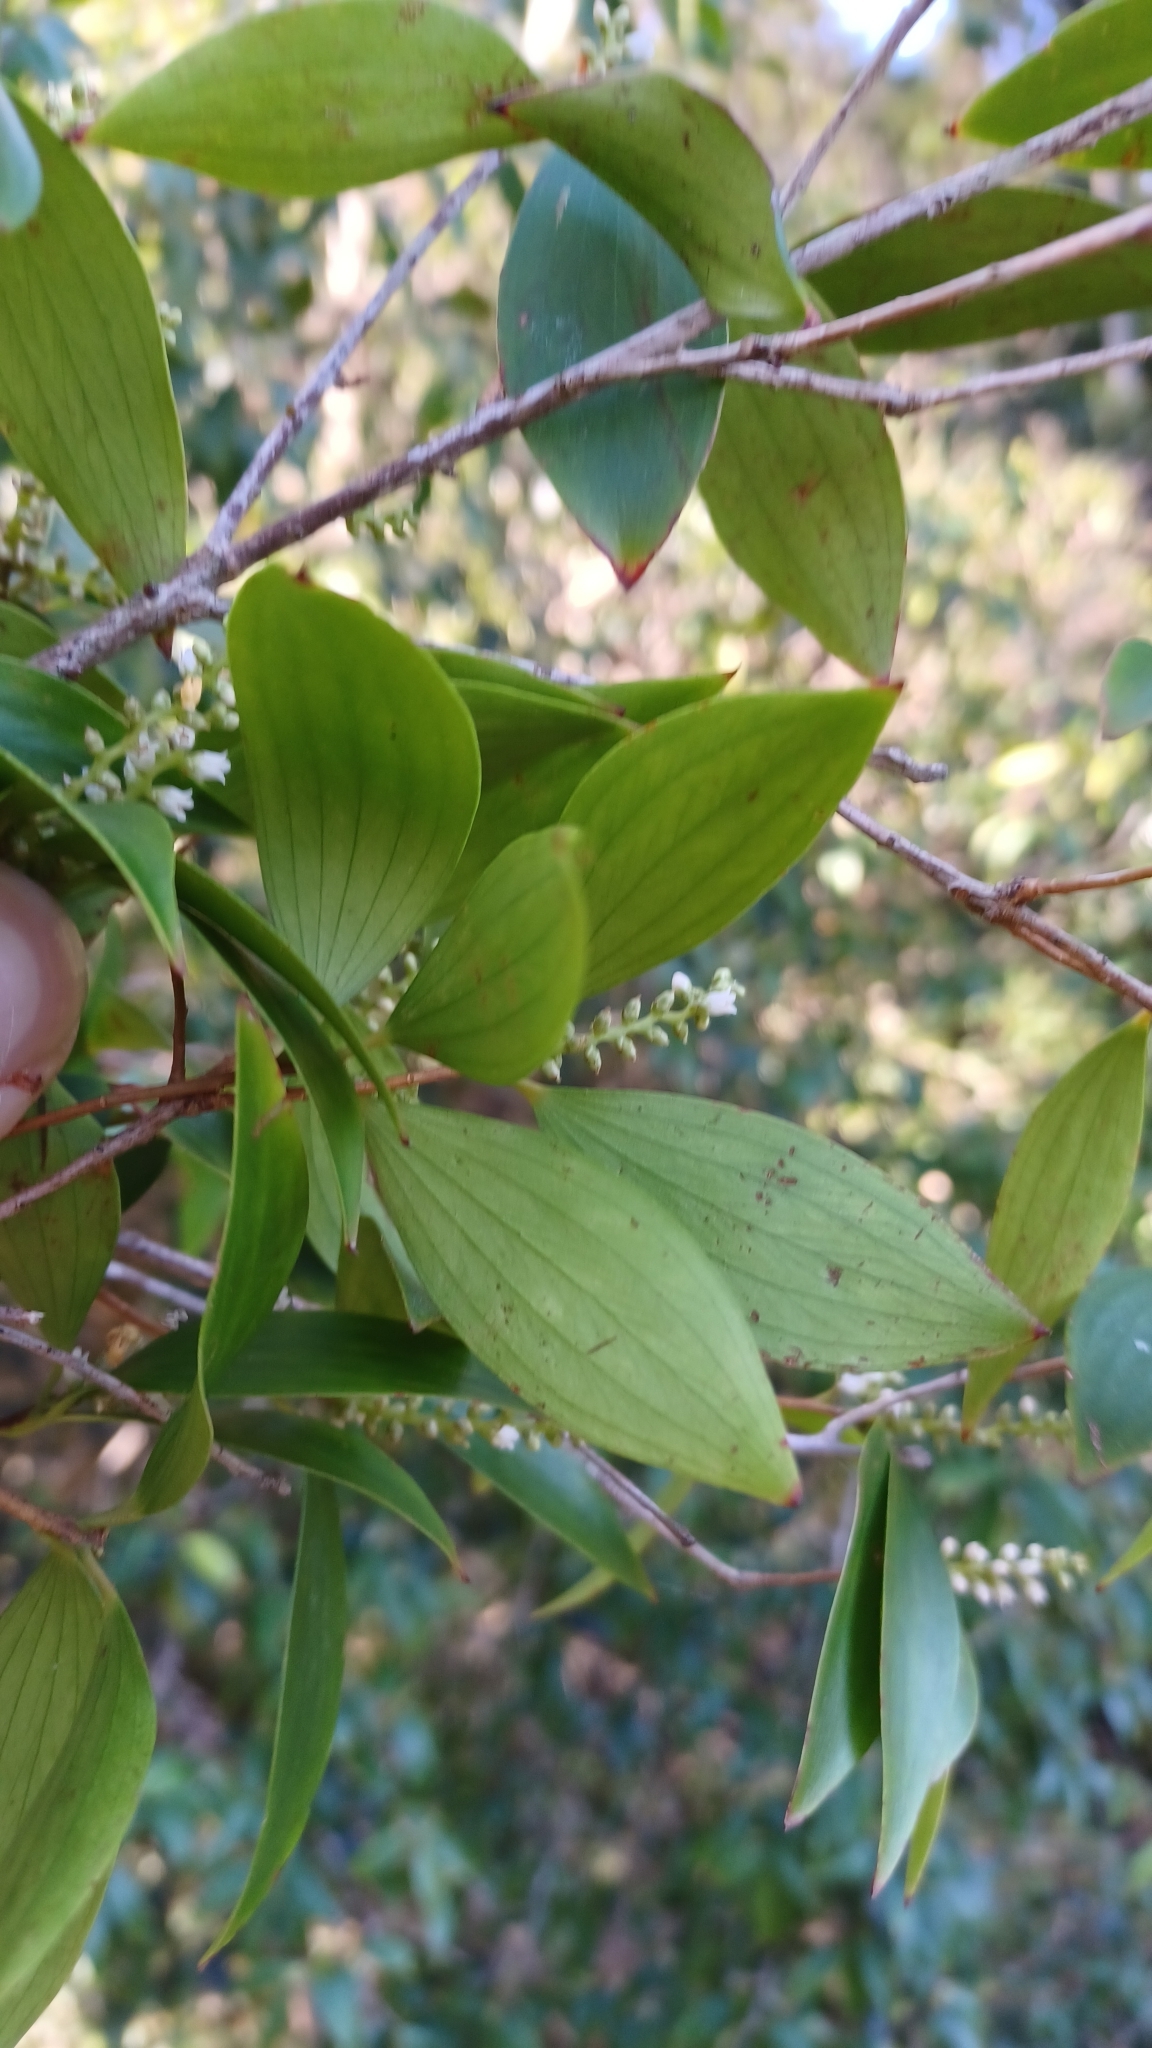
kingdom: Plantae
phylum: Tracheophyta
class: Magnoliopsida
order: Ericales
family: Ericaceae
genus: Trochocarpa
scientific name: Trochocarpa laurina
